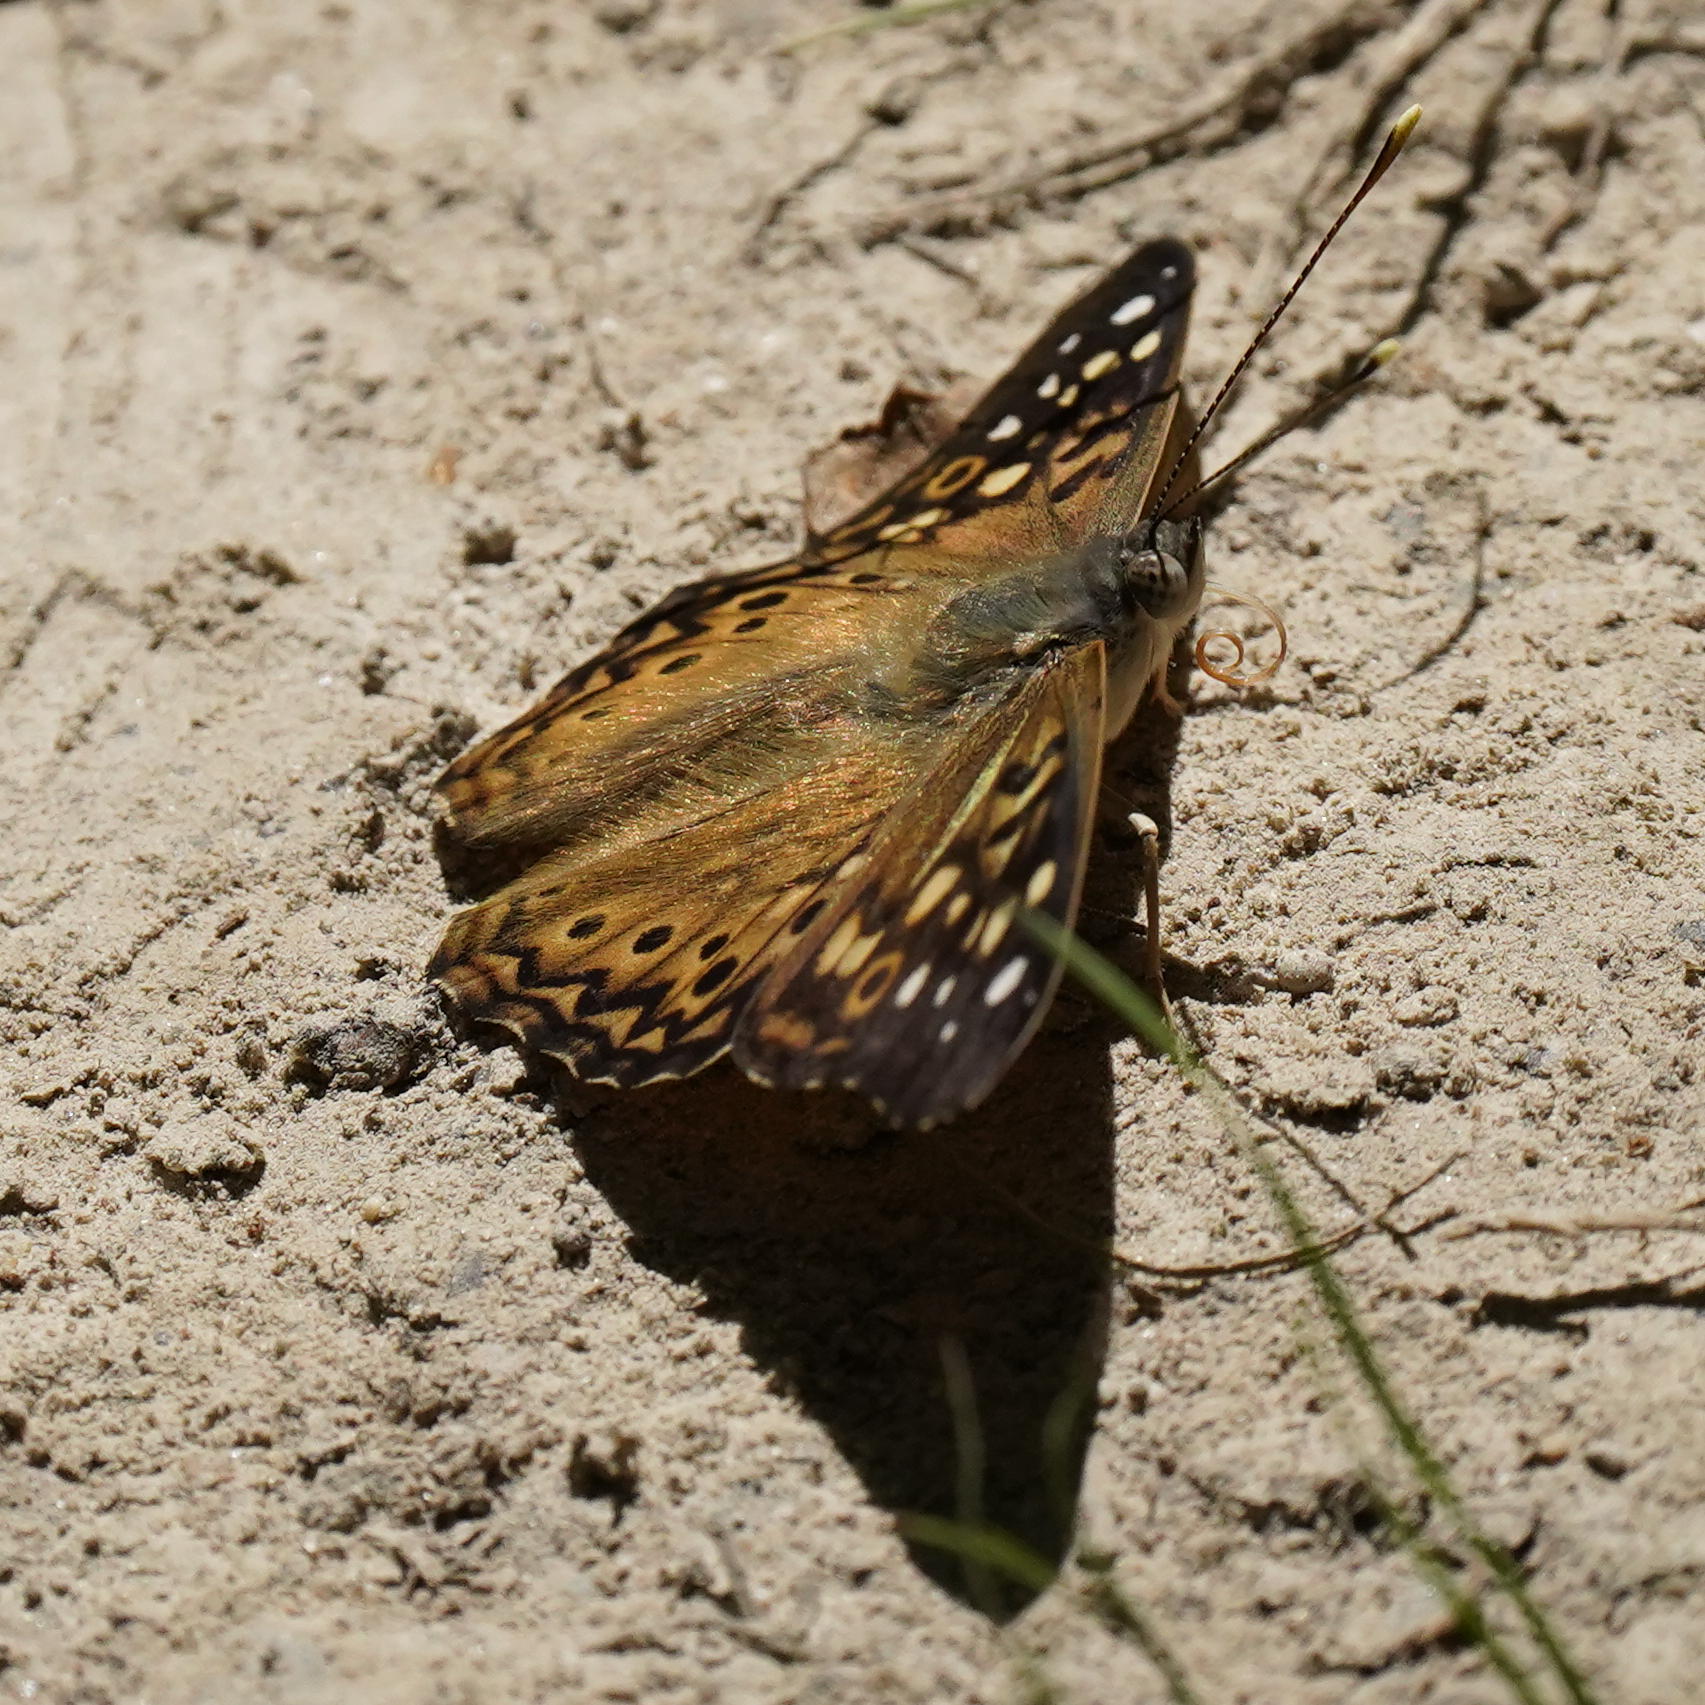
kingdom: Animalia
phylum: Arthropoda
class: Insecta
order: Lepidoptera
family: Nymphalidae
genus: Asterocampa
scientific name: Asterocampa celtis
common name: Hackberry emperor
